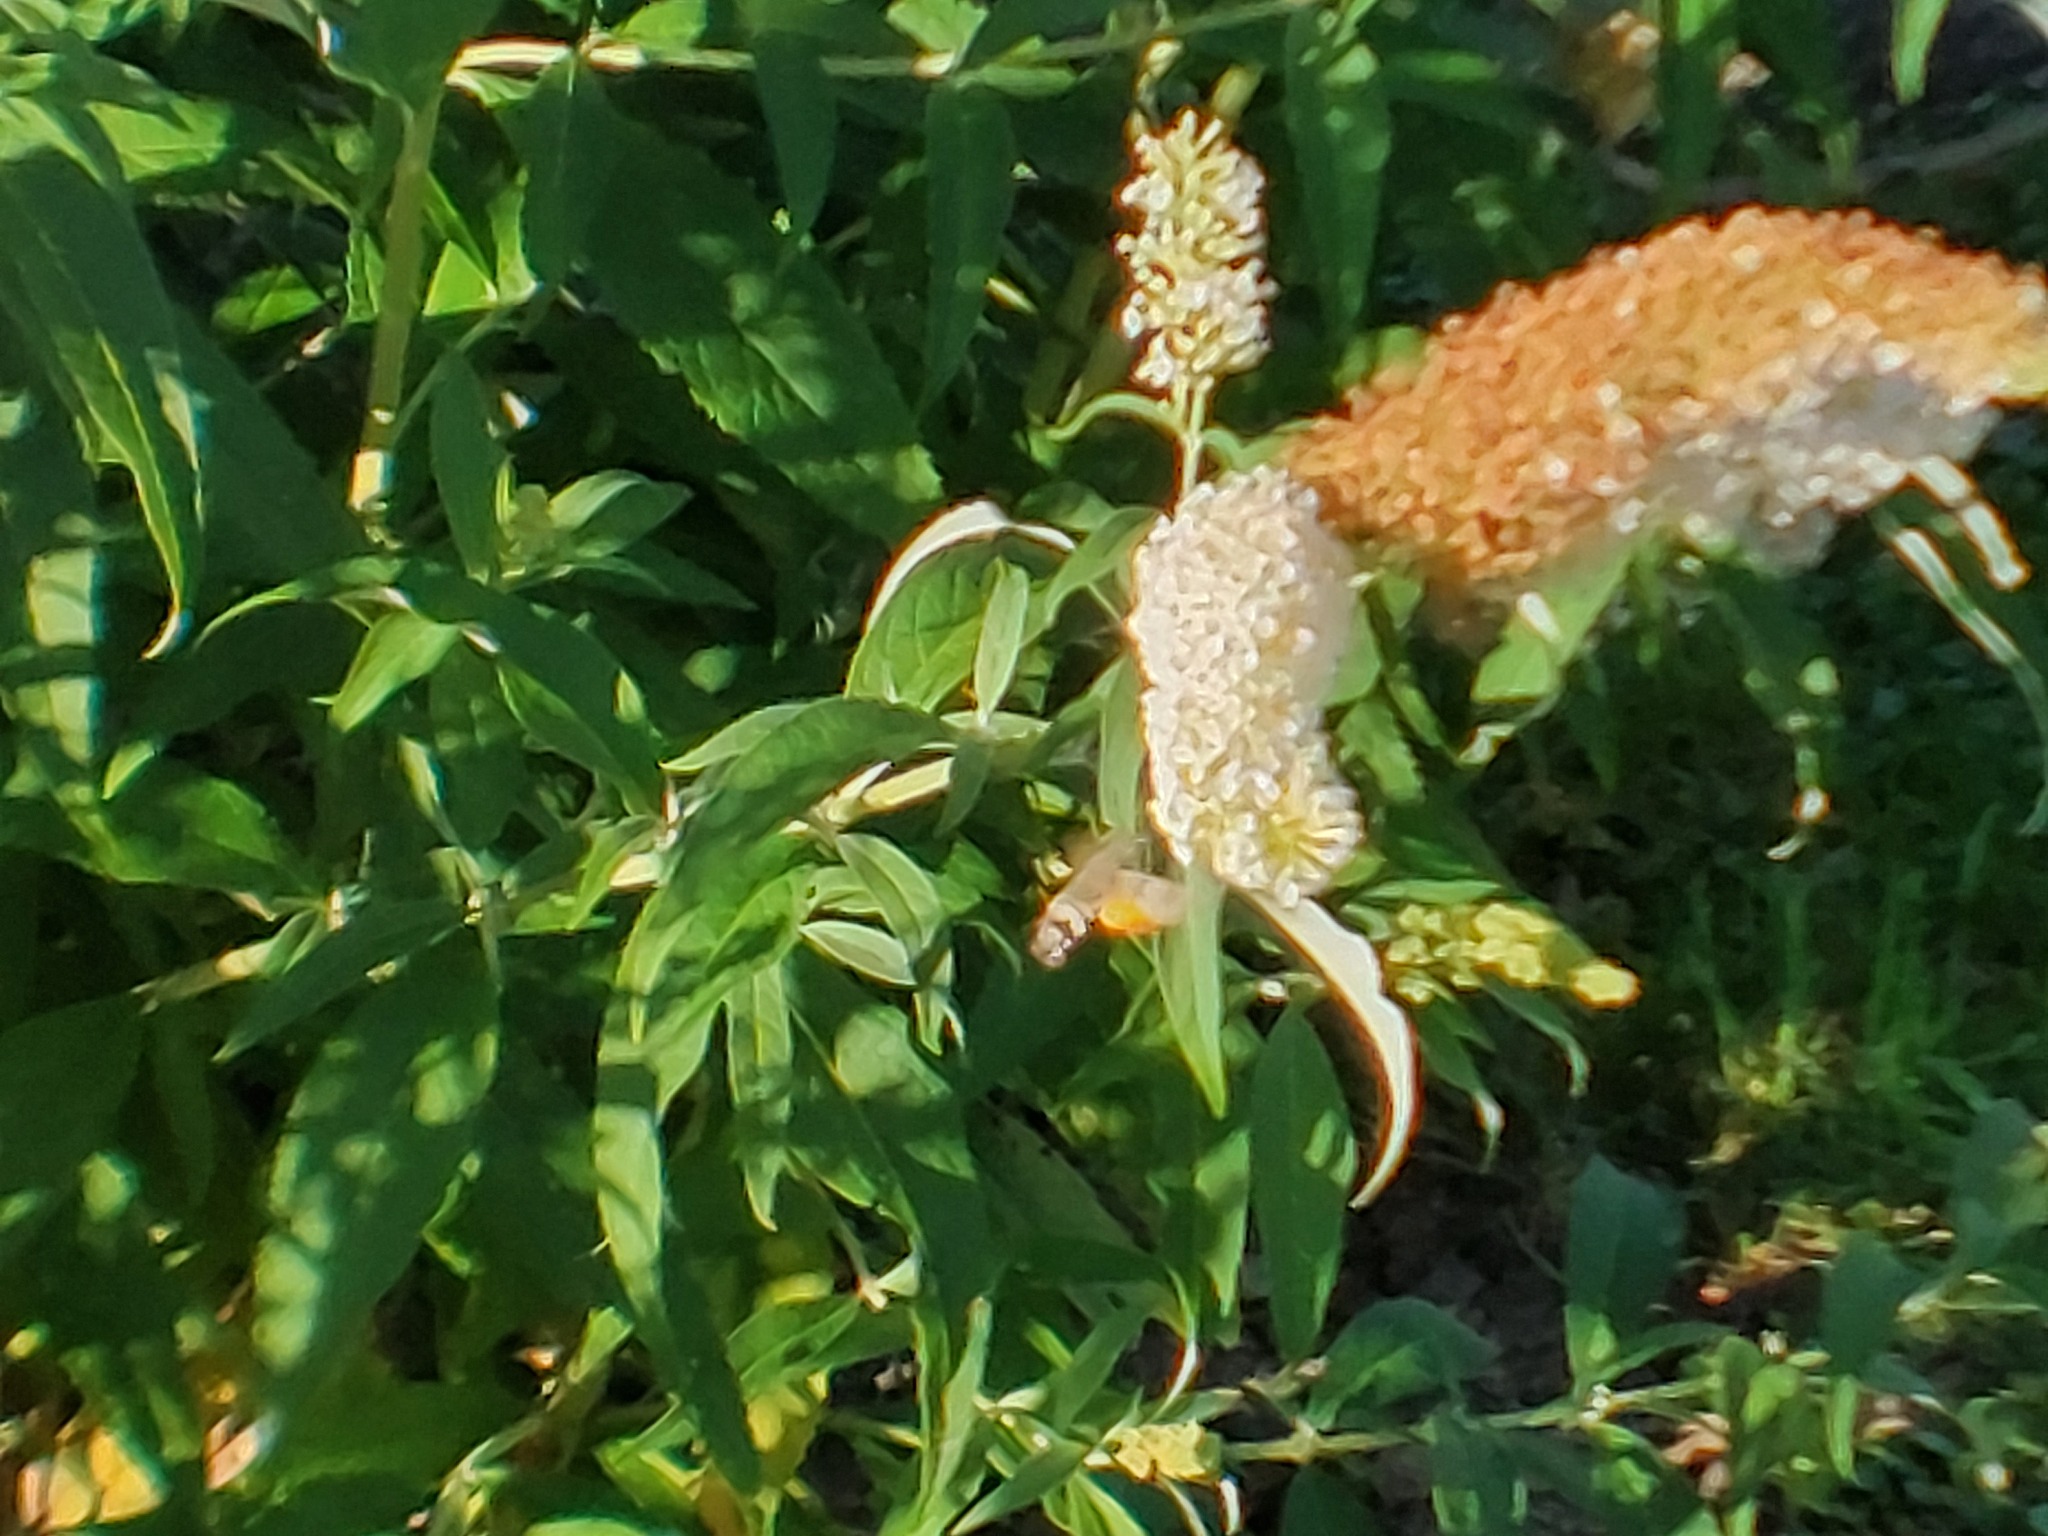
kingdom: Animalia
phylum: Arthropoda
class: Insecta
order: Lepidoptera
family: Sphingidae
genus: Macroglossum
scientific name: Macroglossum stellatarum
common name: Humming-bird hawk-moth
